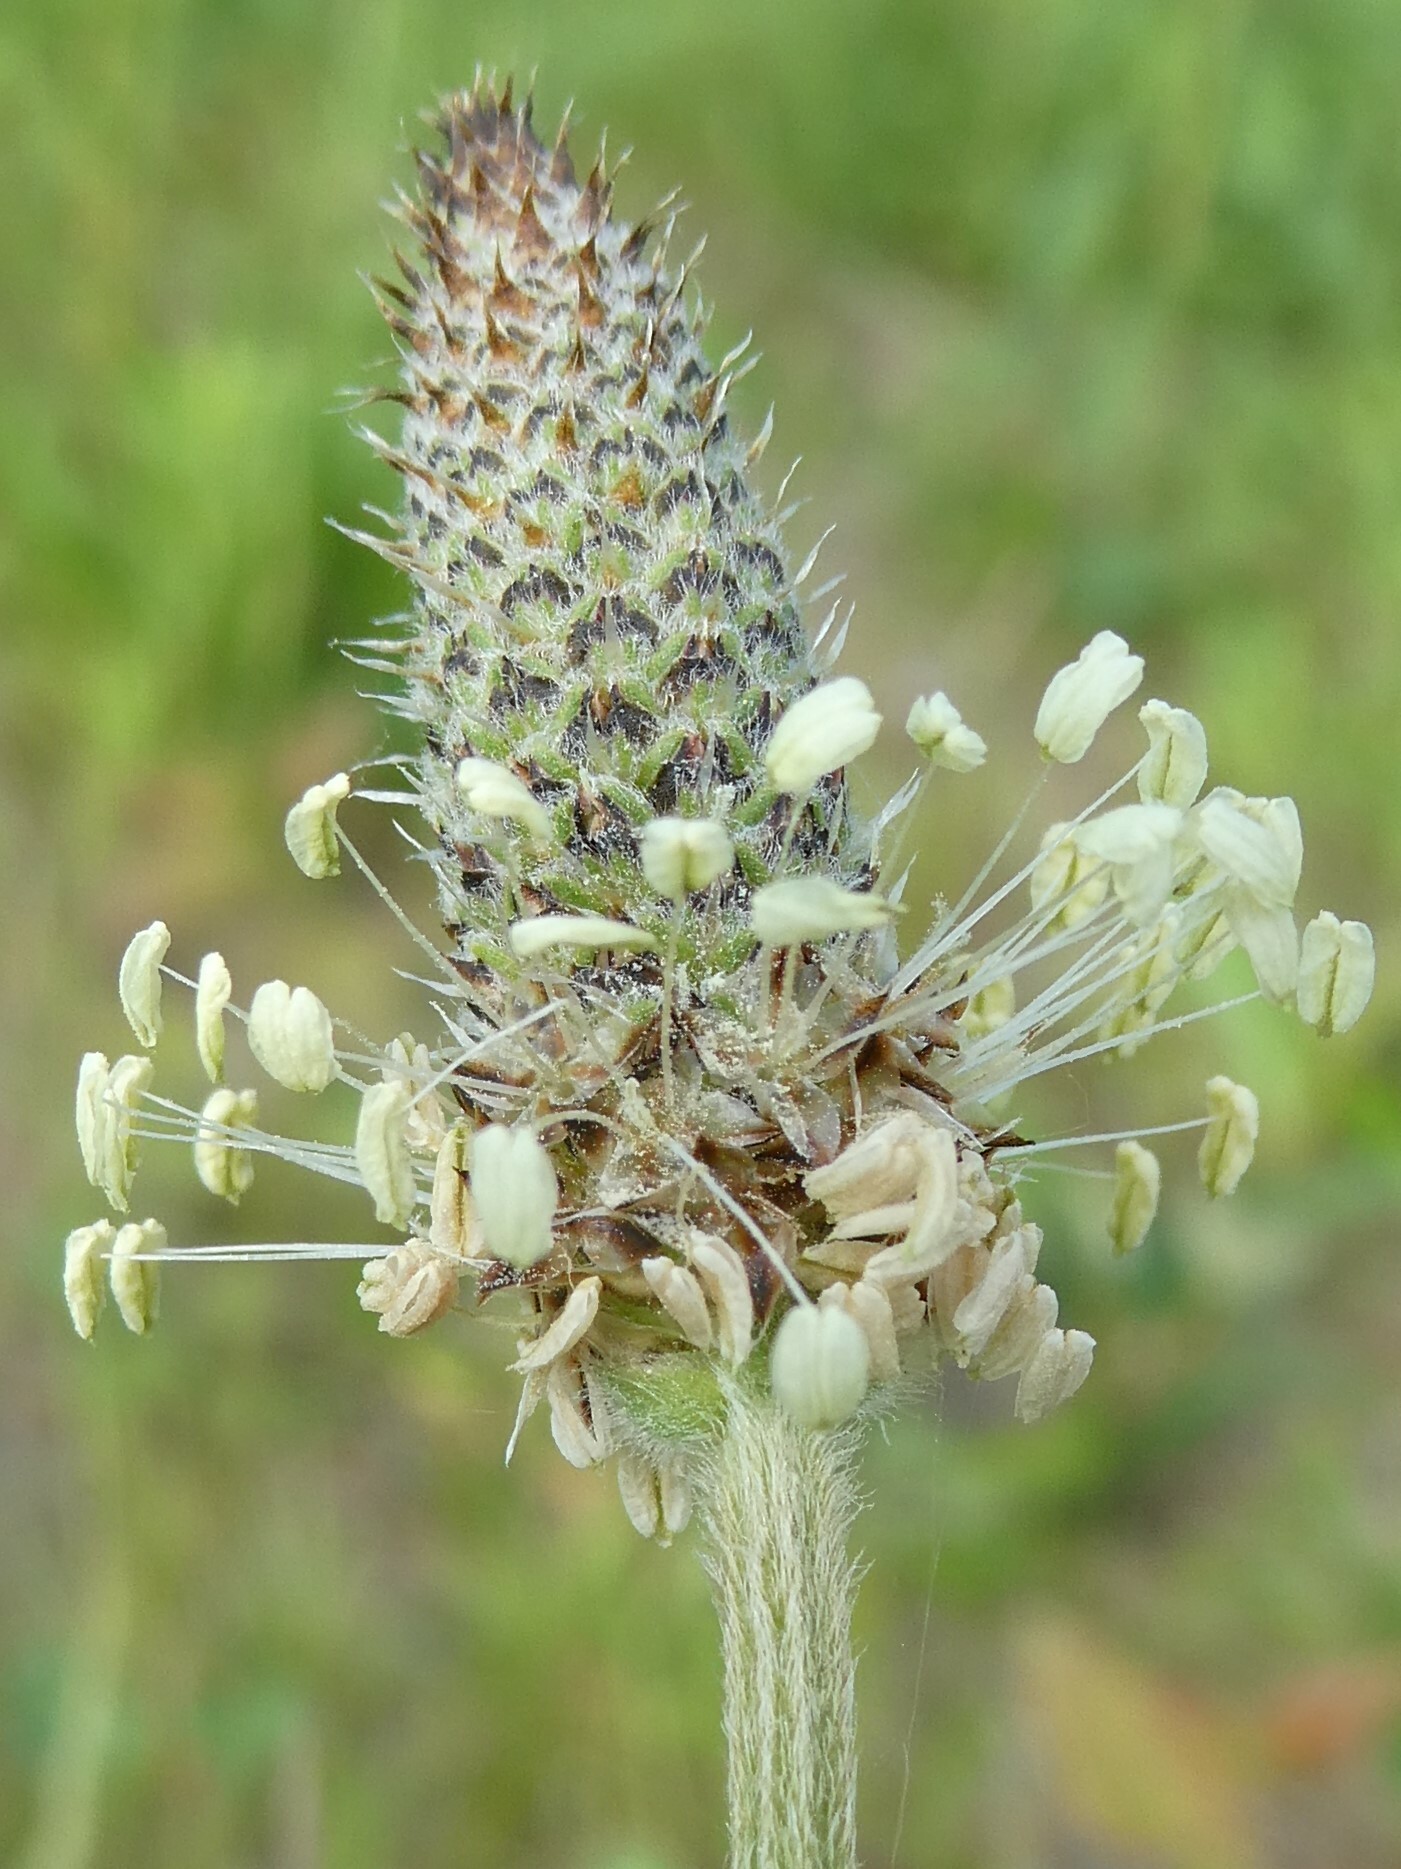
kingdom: Plantae
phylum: Tracheophyta
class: Magnoliopsida
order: Lamiales
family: Plantaginaceae
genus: Plantago
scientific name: Plantago lanceolata
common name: Ribwort plantain
